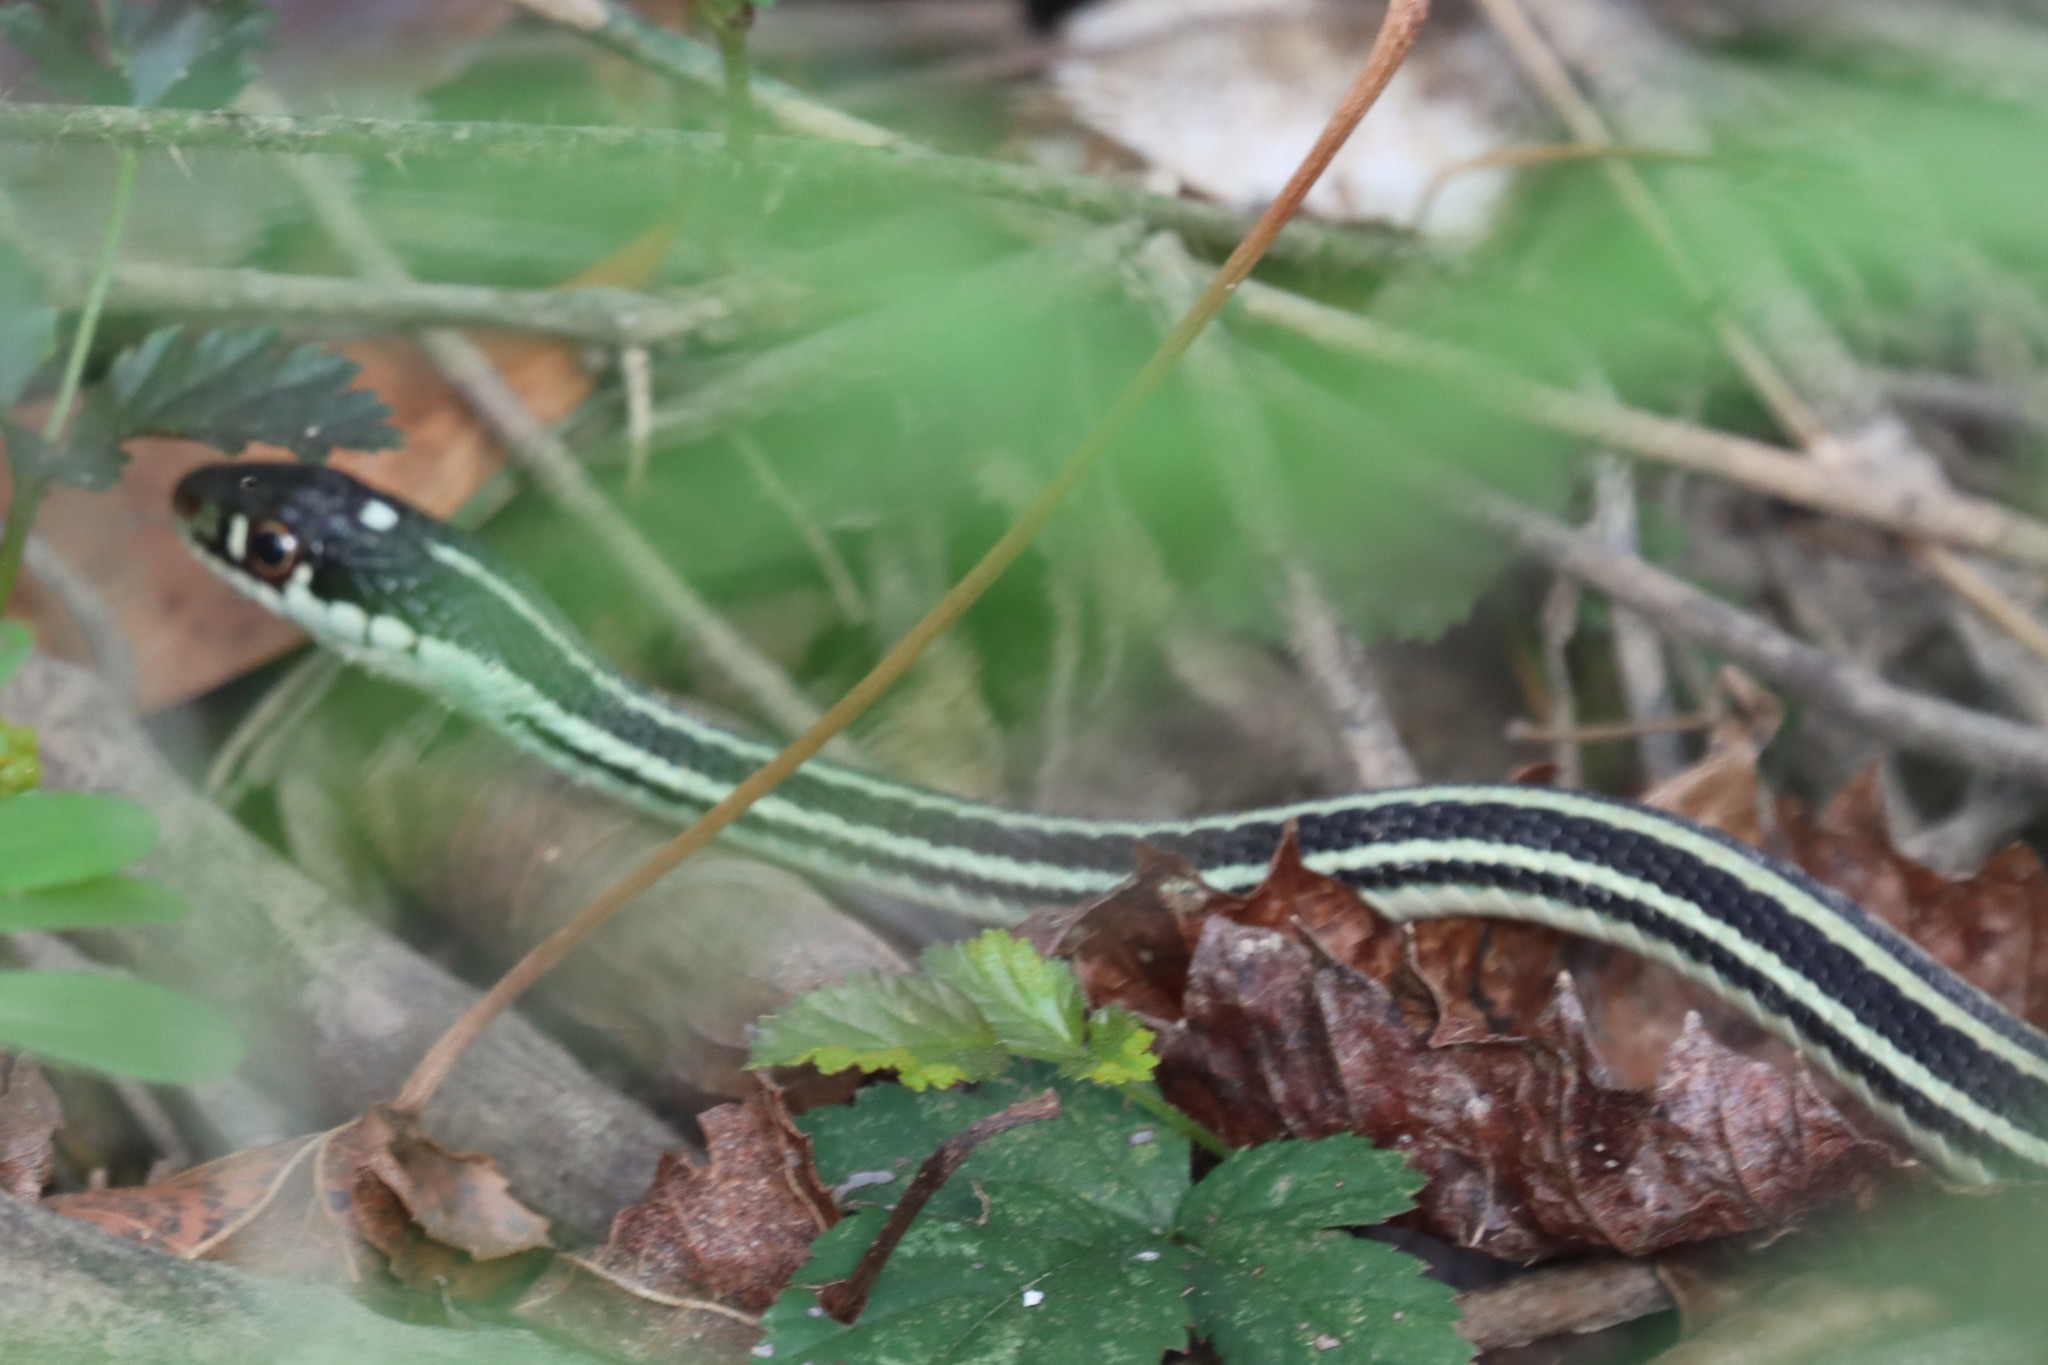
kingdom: Animalia
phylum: Chordata
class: Squamata
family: Colubridae
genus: Thamnophis
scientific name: Thamnophis proximus
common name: Western ribbon snake
